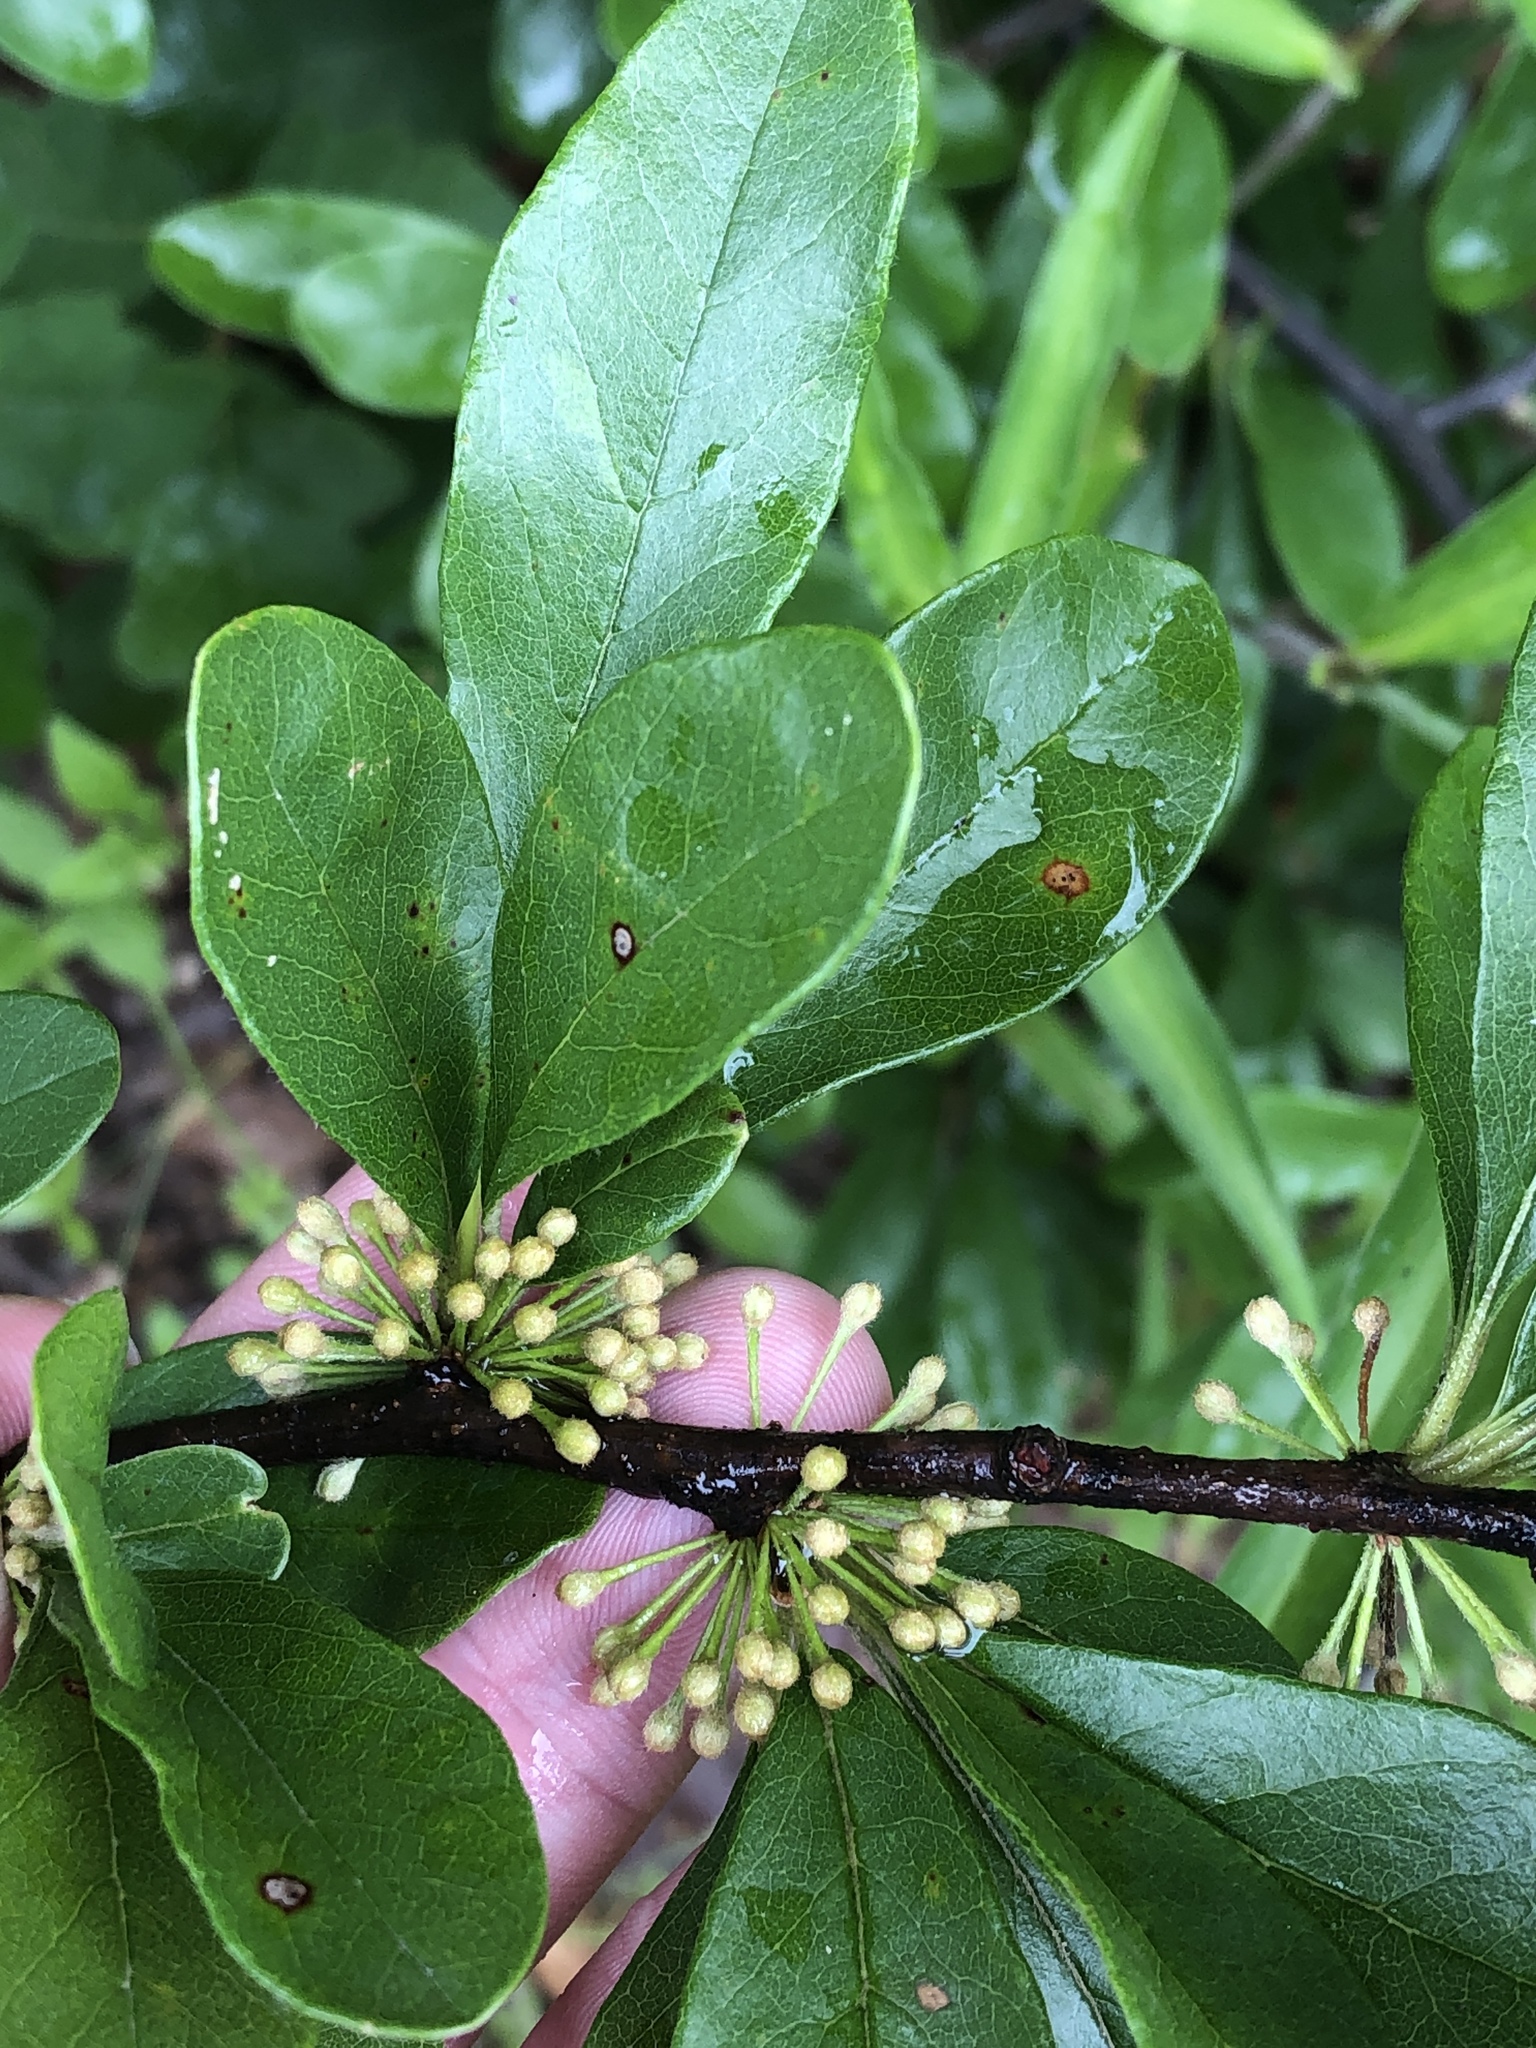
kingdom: Plantae
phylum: Tracheophyta
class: Magnoliopsida
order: Ericales
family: Sapotaceae
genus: Sideroxylon
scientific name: Sideroxylon lanuginosum
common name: Chittamwood
